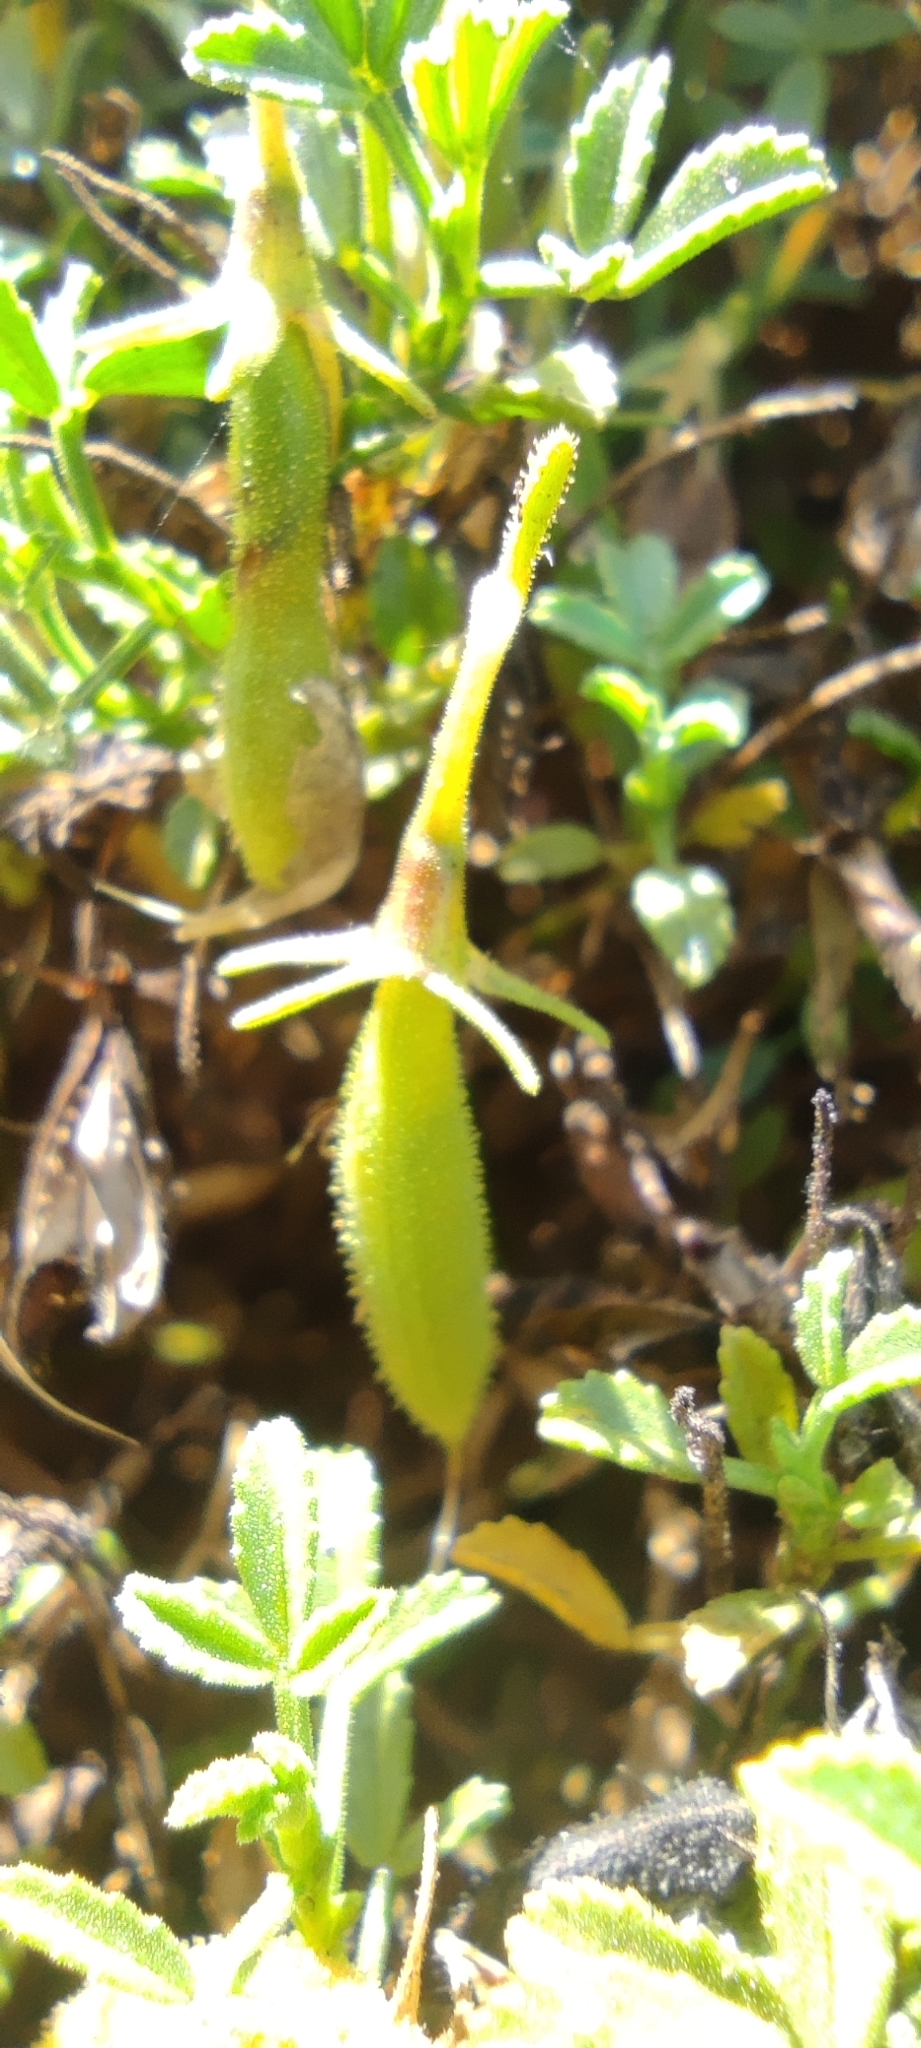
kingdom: Plantae
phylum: Tracheophyta
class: Magnoliopsida
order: Fabales
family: Fabaceae
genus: Ononis
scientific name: Ononis ramosissima
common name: Bush restharrow
